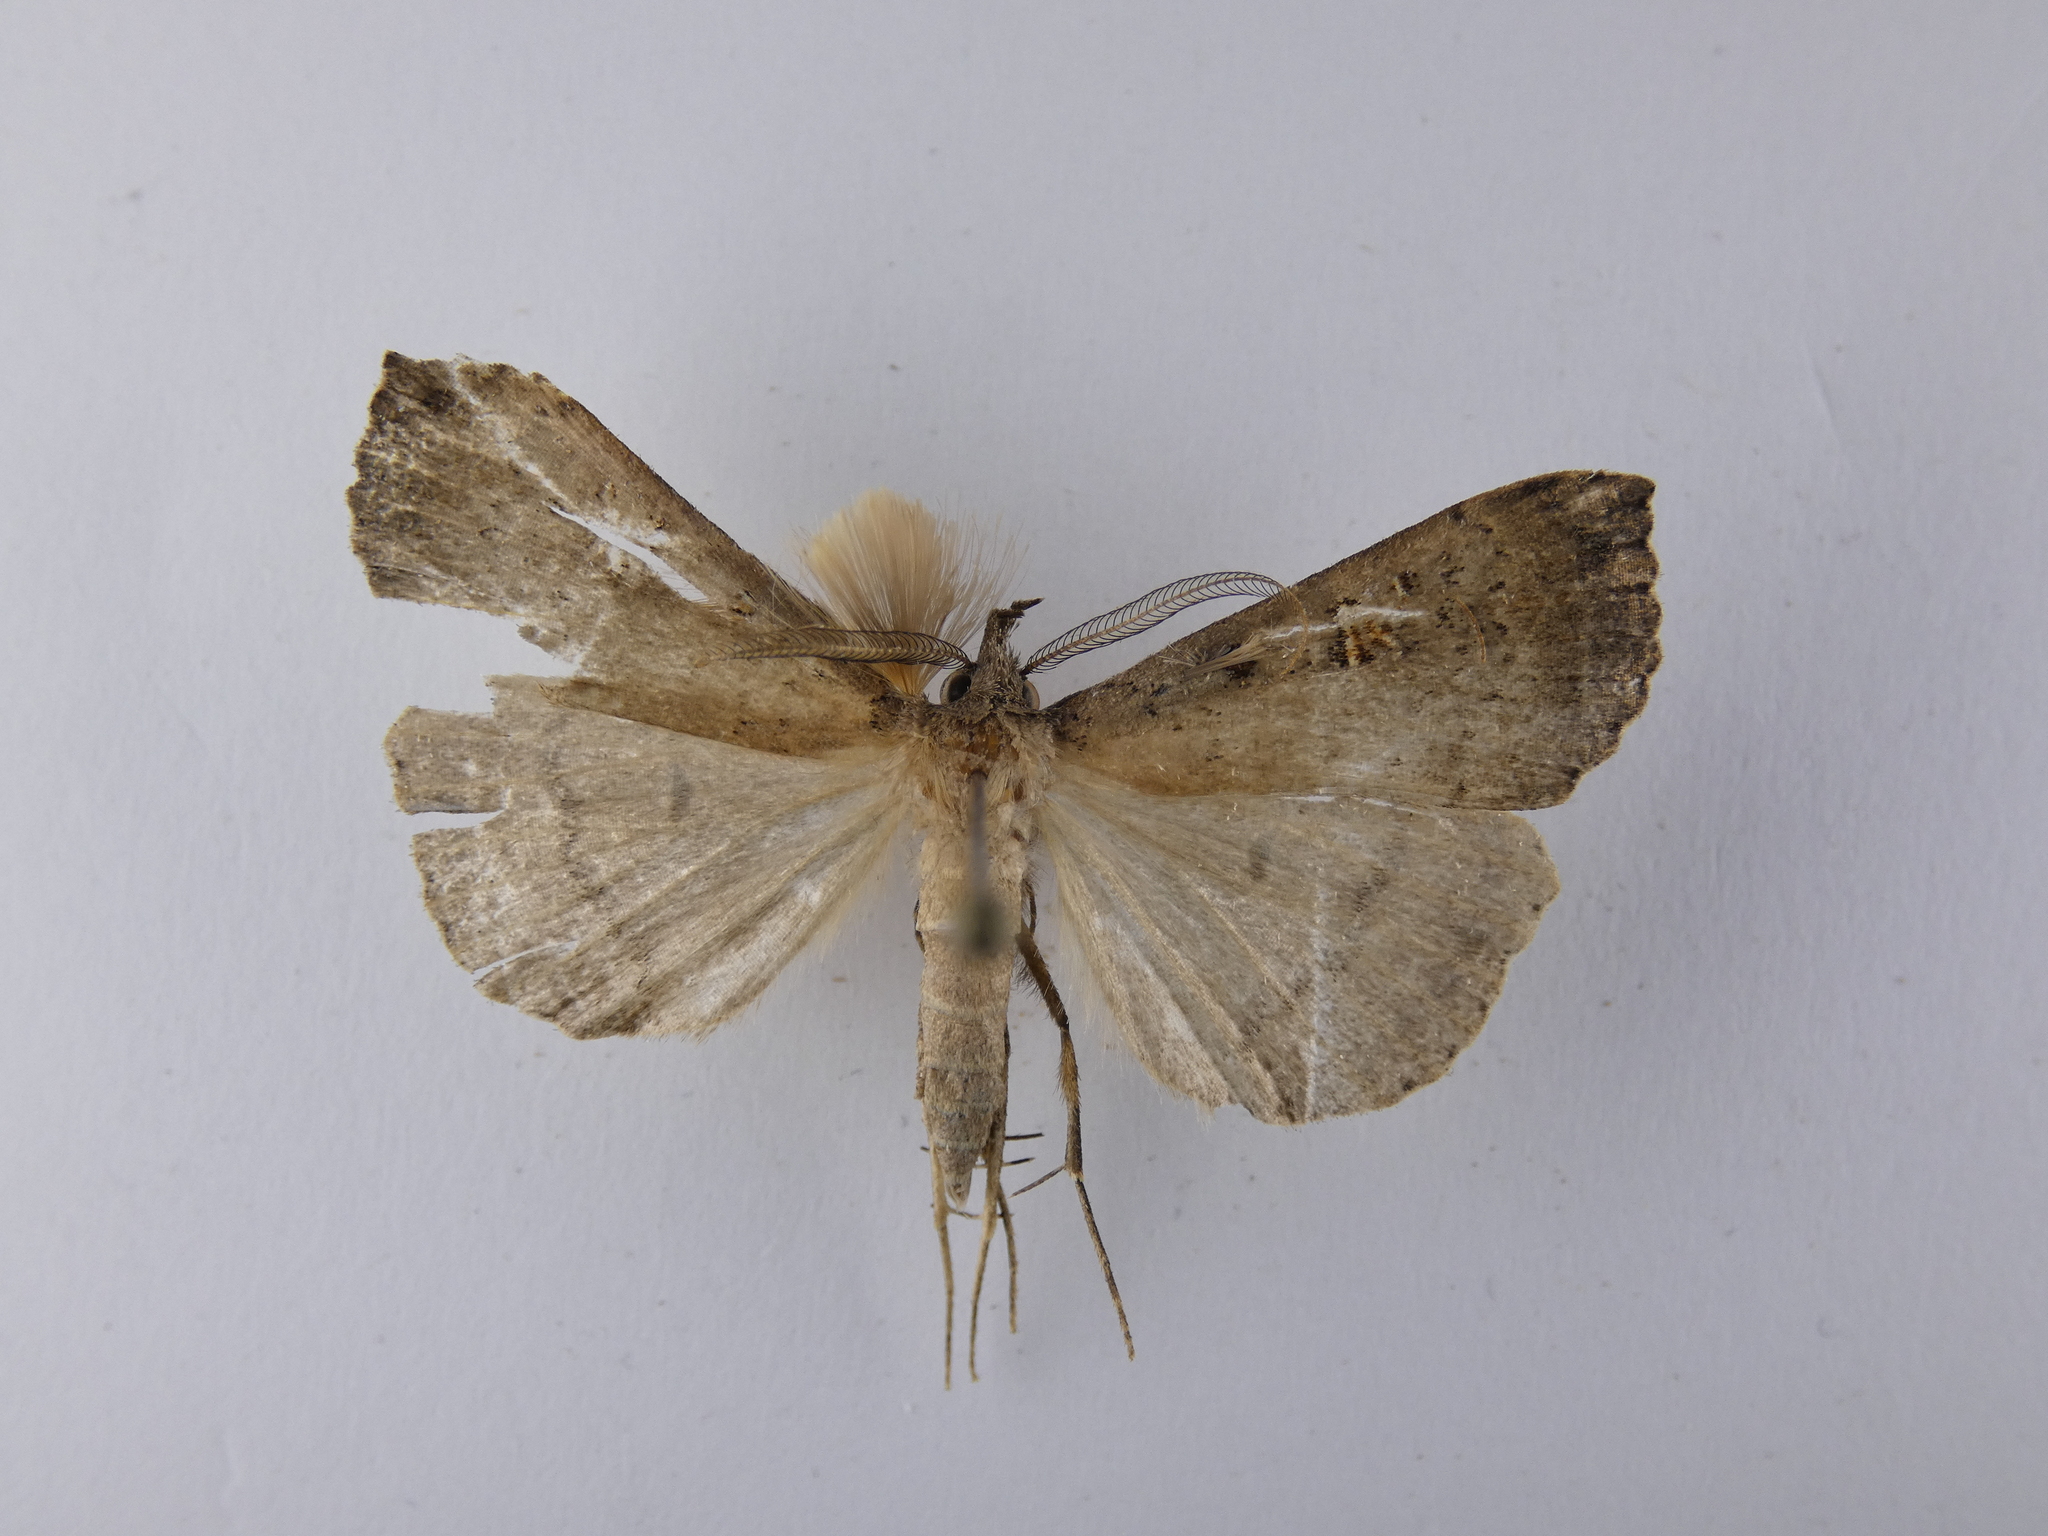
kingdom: Animalia
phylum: Arthropoda
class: Insecta
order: Lepidoptera
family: Erebidae
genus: Rhapsa
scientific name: Rhapsa scotosialis
